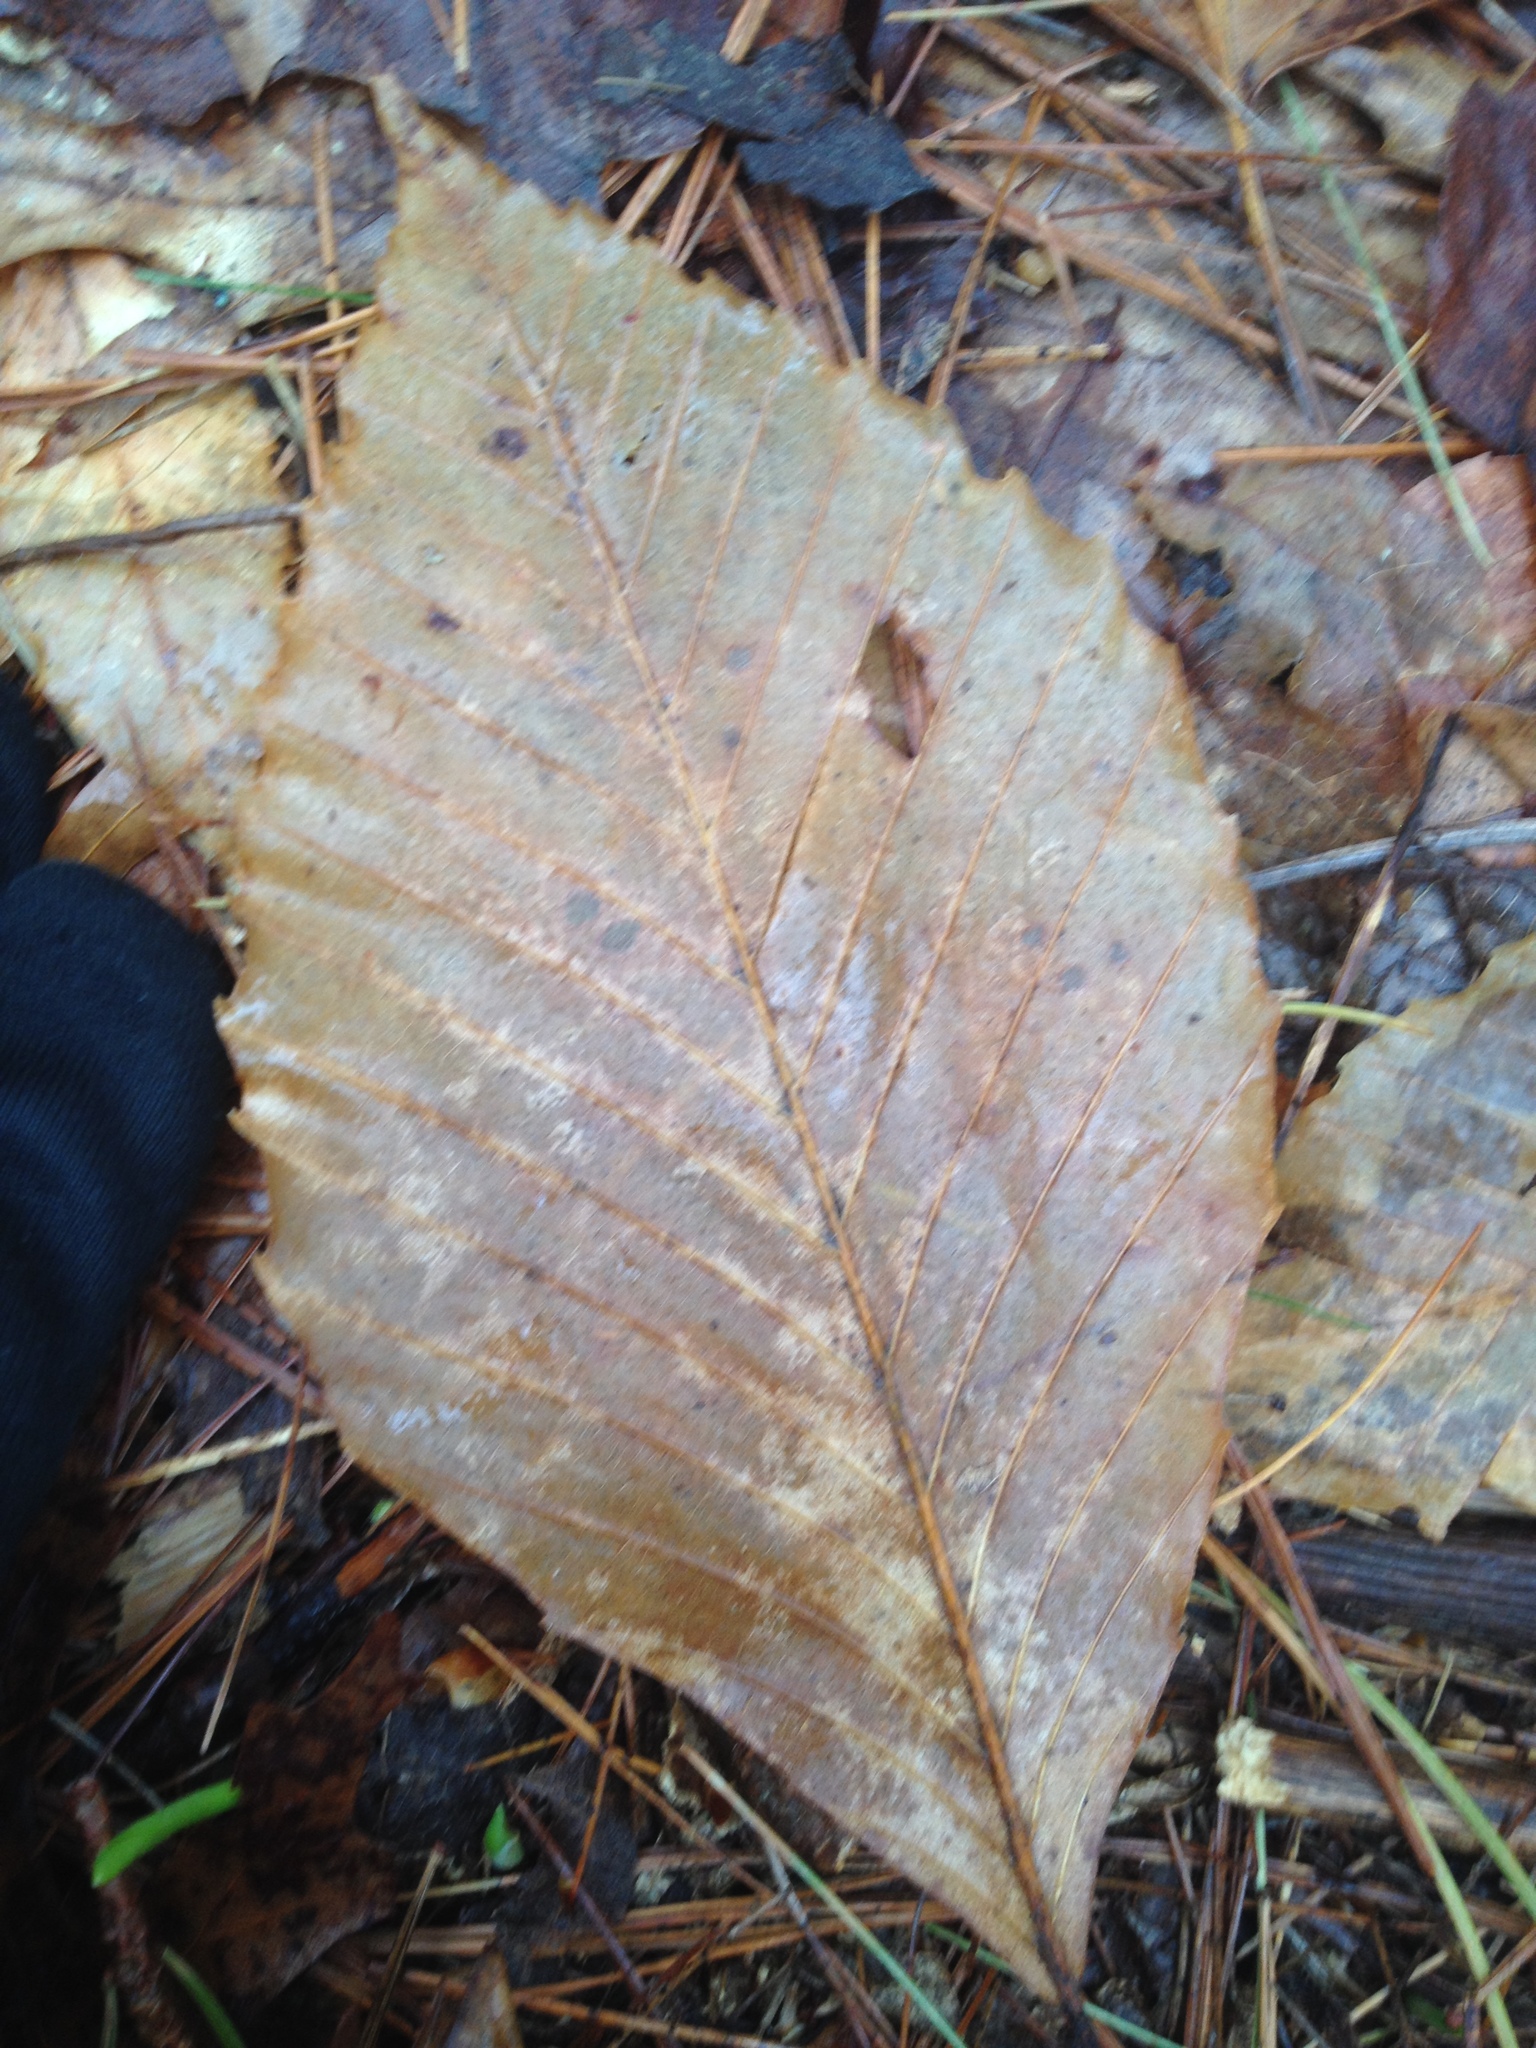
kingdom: Plantae
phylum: Tracheophyta
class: Magnoliopsida
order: Fagales
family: Fagaceae
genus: Fagus
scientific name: Fagus grandifolia
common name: American beech
